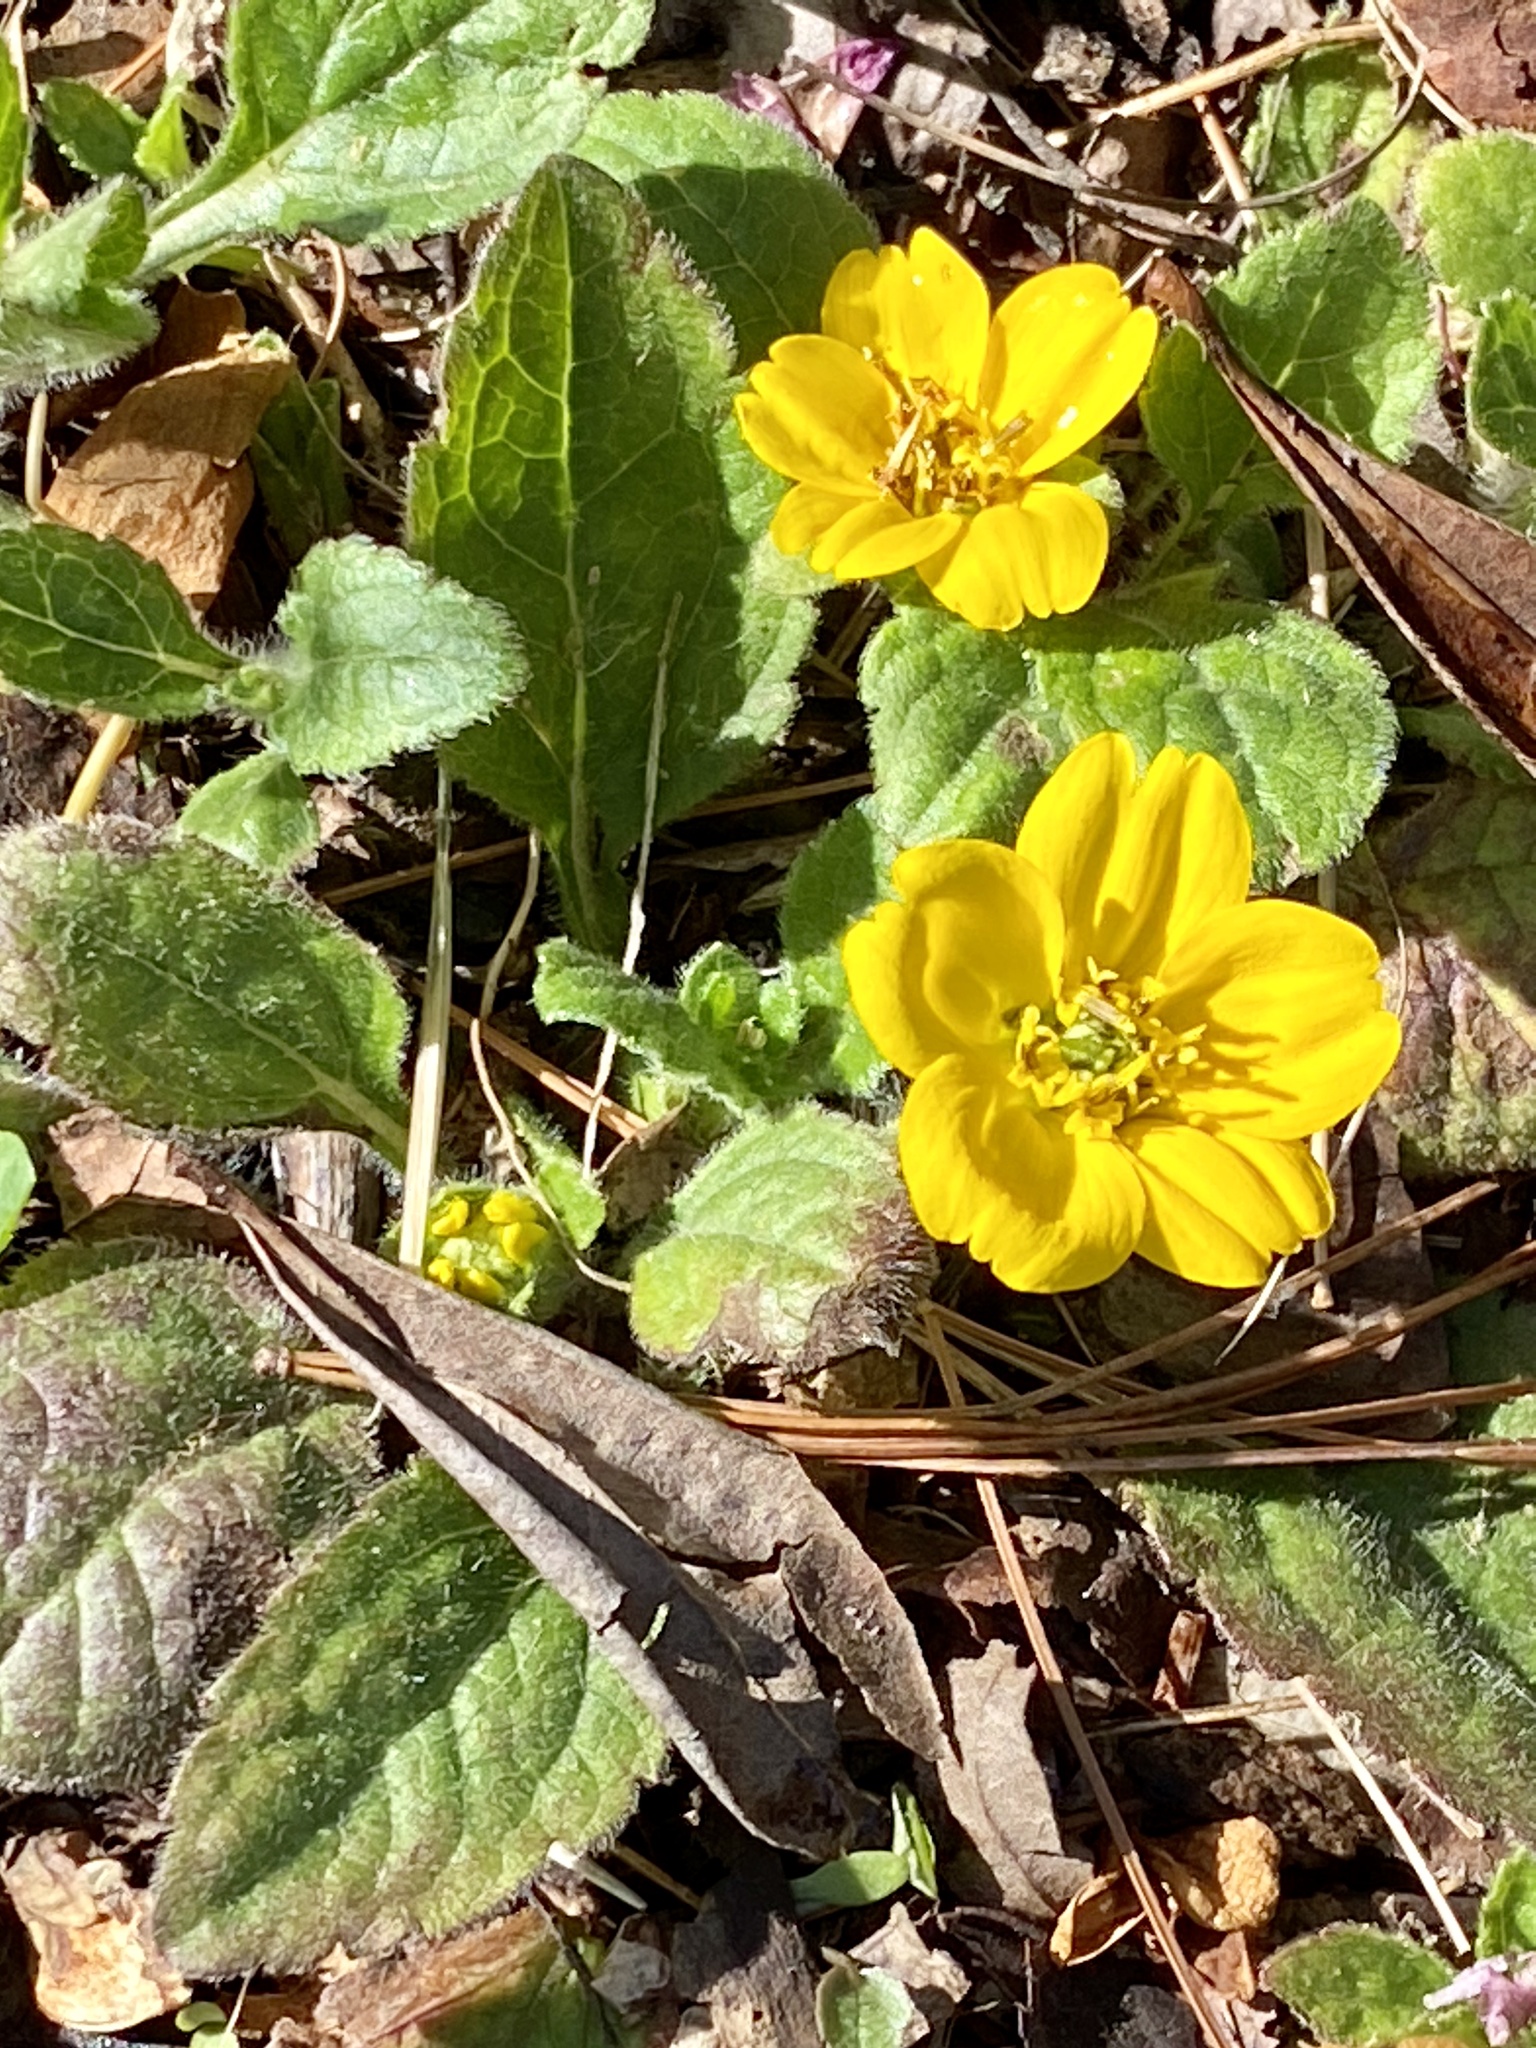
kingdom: Plantae
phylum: Tracheophyta
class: Magnoliopsida
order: Asterales
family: Asteraceae
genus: Chrysogonum
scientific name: Chrysogonum virginianum
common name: Golden-knee
